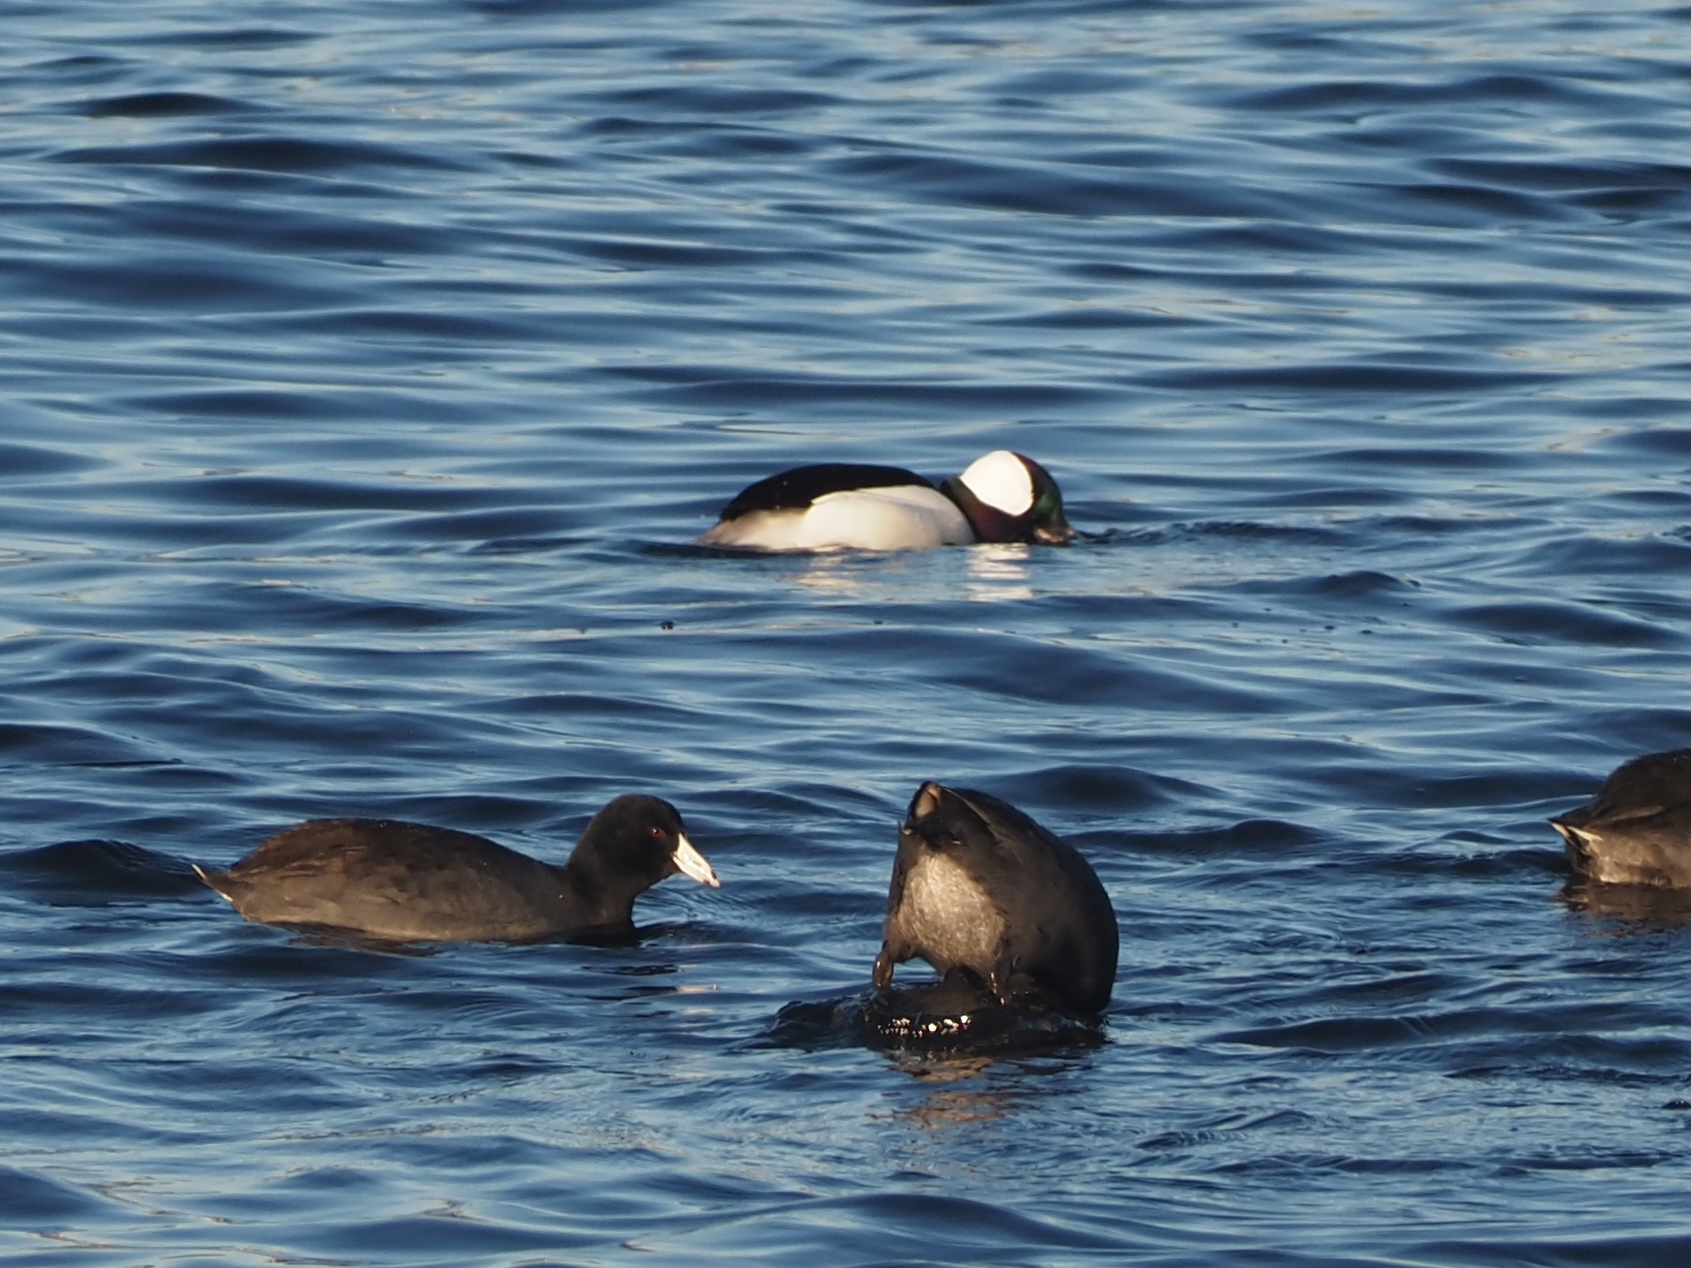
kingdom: Animalia
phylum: Chordata
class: Aves
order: Anseriformes
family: Anatidae
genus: Bucephala
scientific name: Bucephala albeola
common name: Bufflehead
